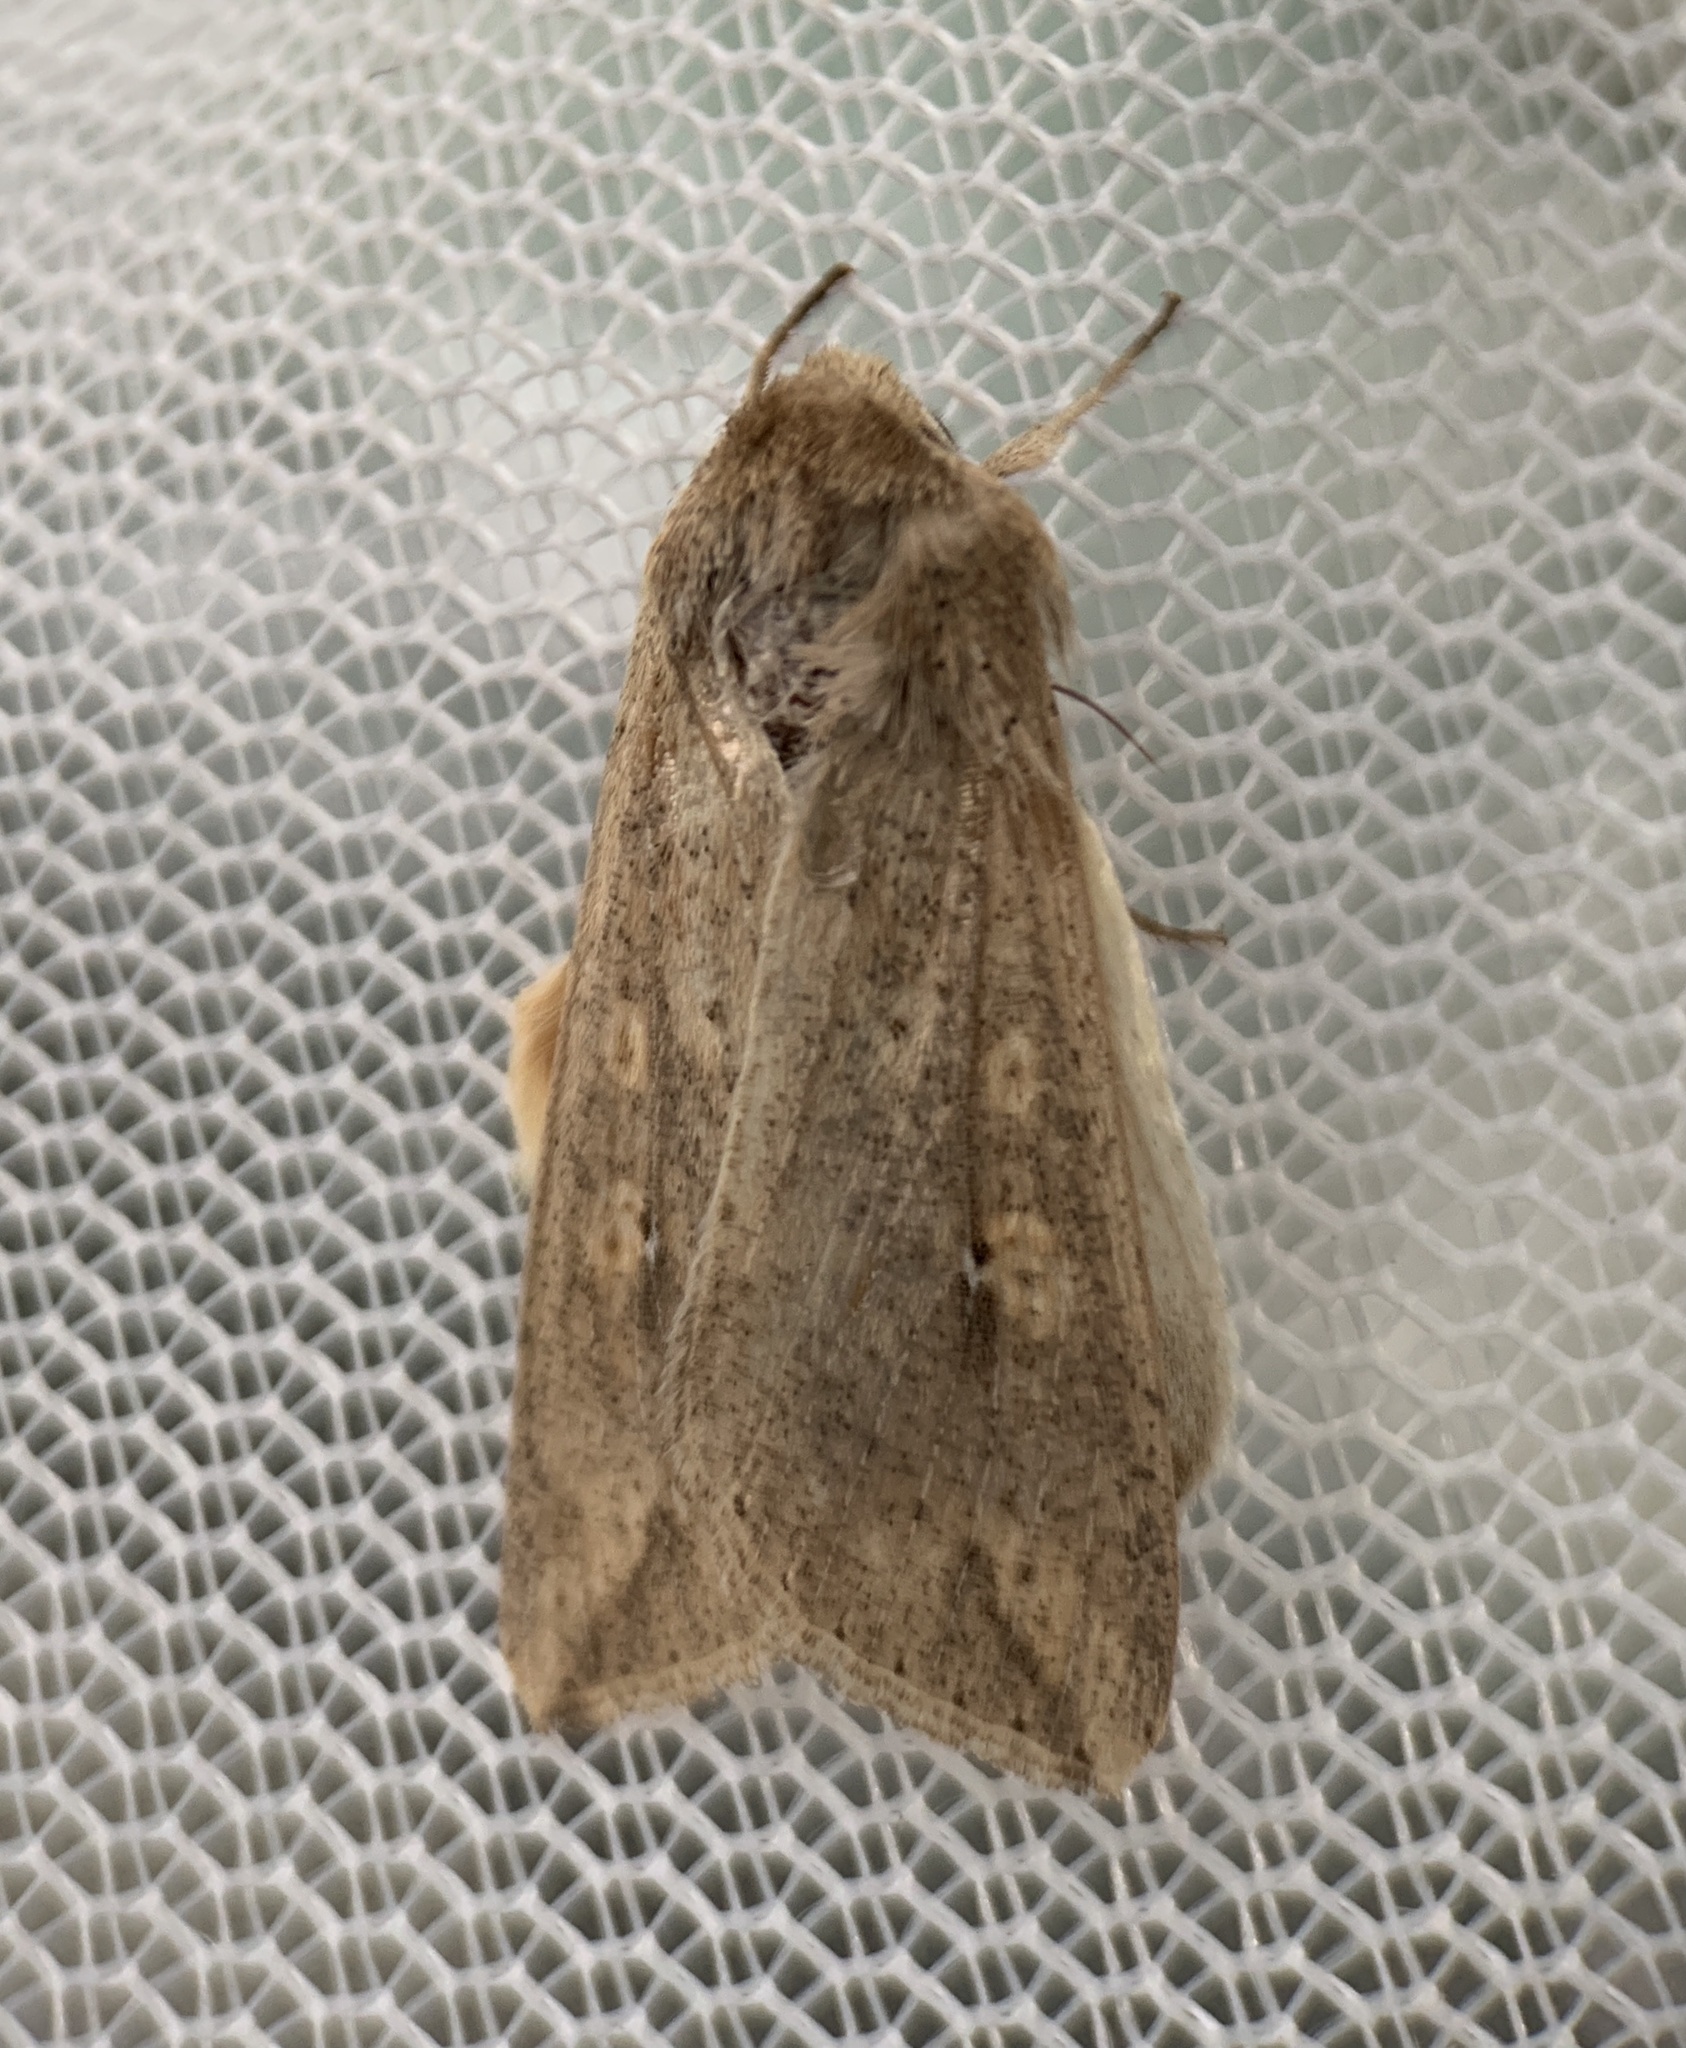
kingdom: Animalia
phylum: Arthropoda
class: Insecta
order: Lepidoptera
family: Noctuidae
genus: Mythimna
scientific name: Mythimna unipuncta
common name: White-speck
